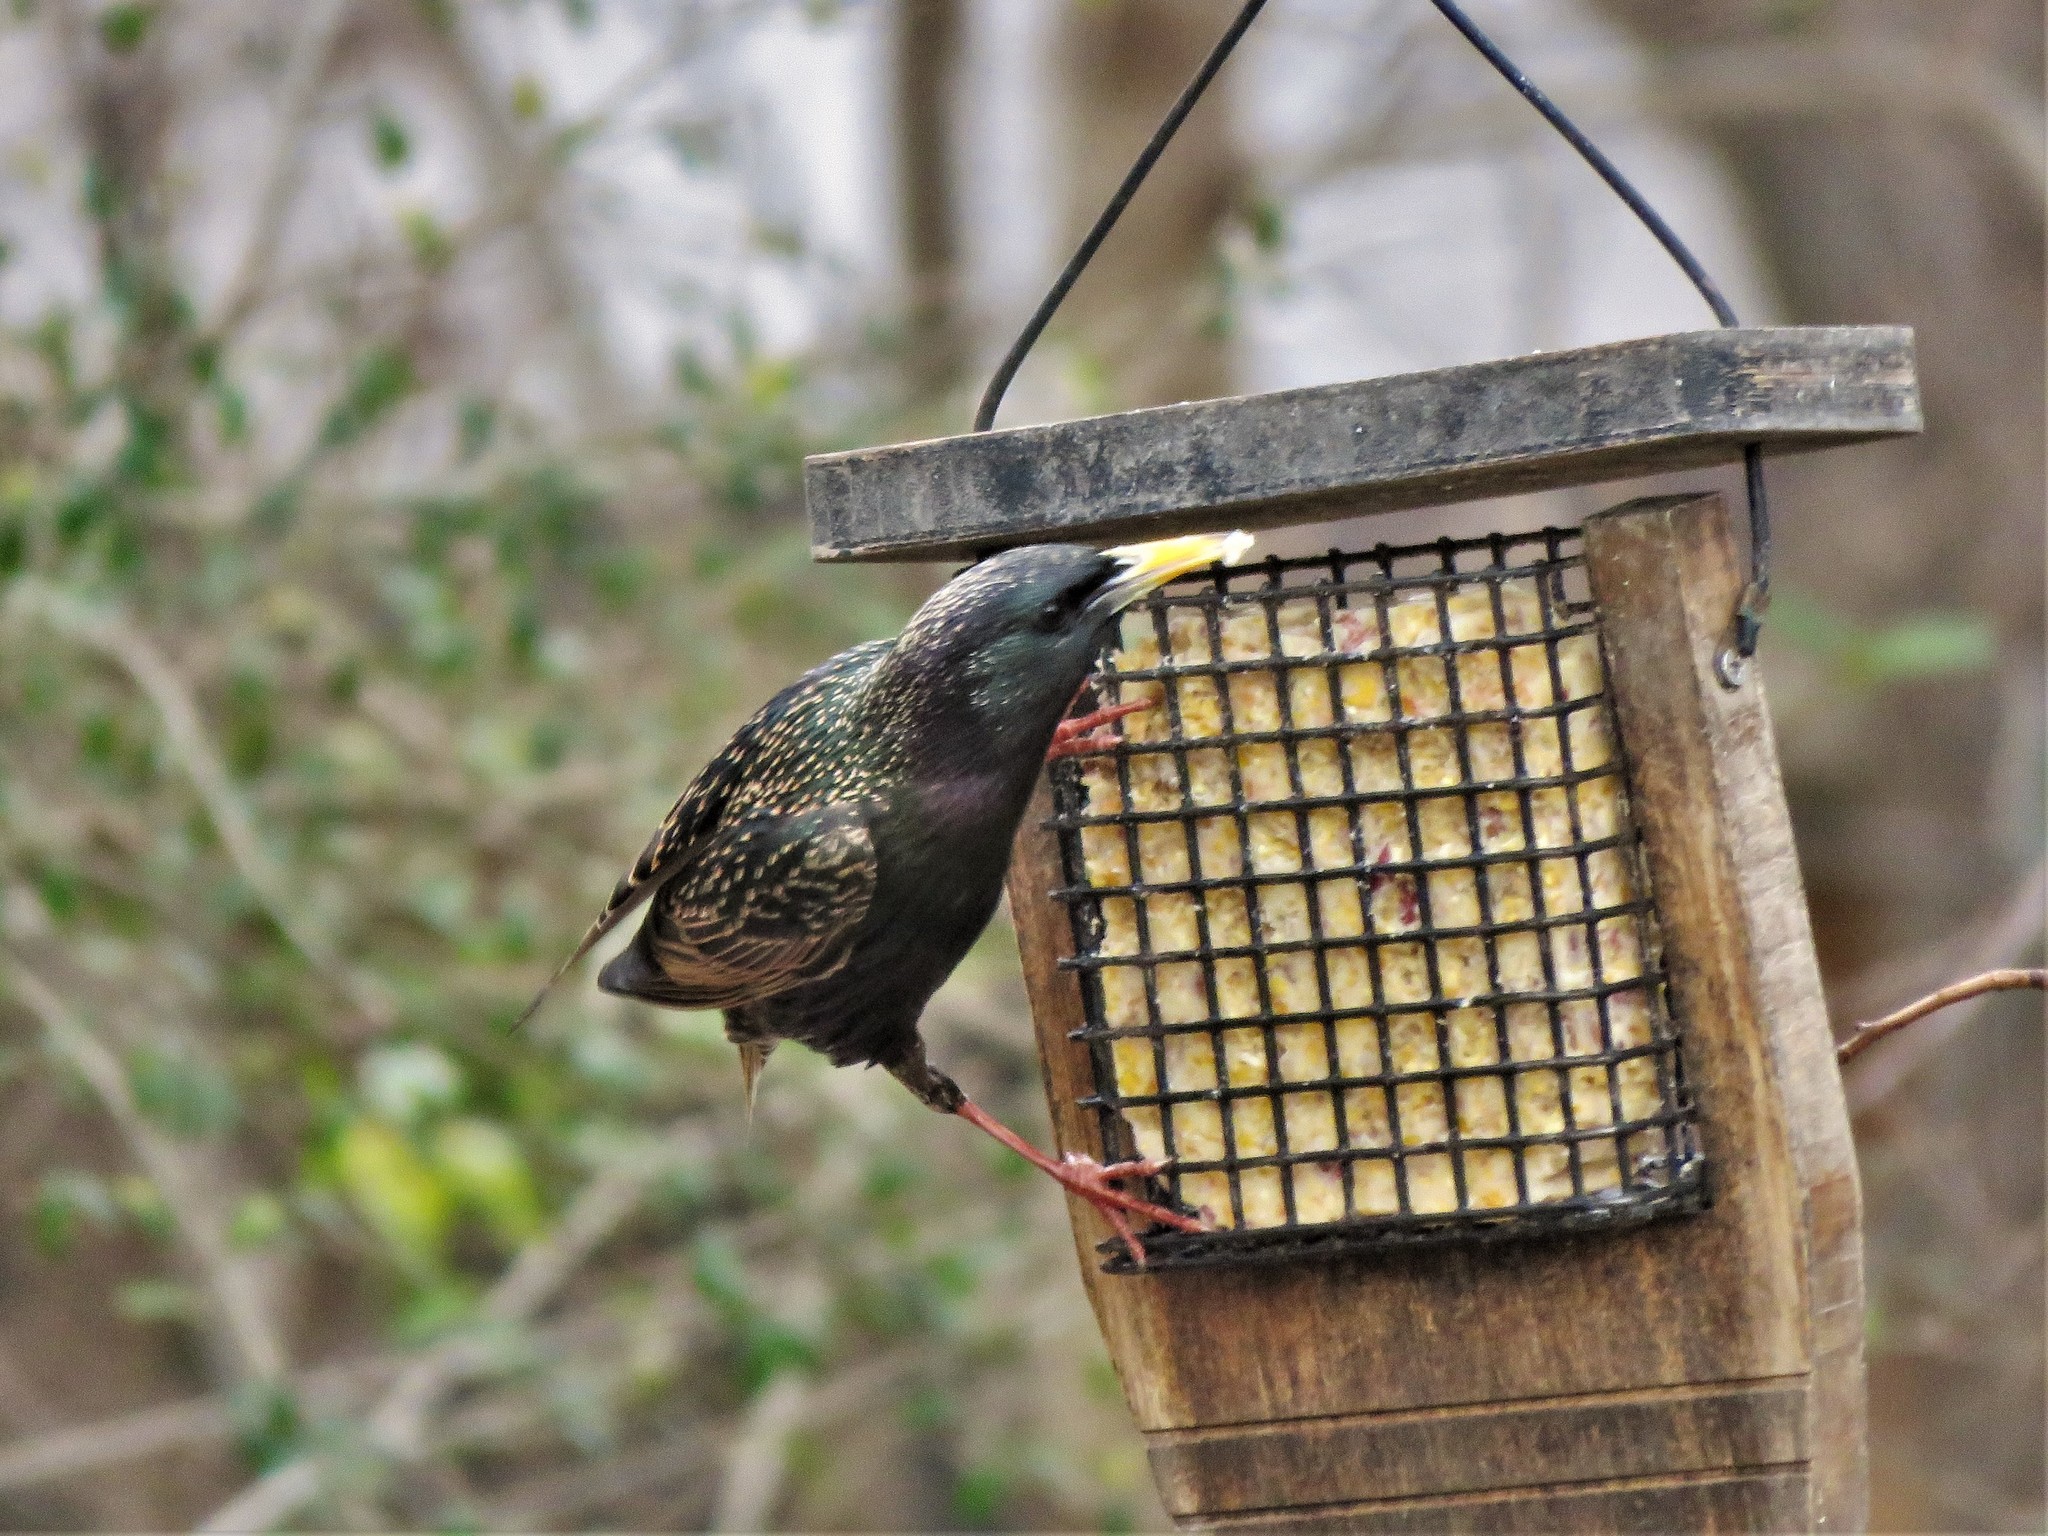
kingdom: Animalia
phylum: Chordata
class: Aves
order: Passeriformes
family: Sturnidae
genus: Sturnus
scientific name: Sturnus vulgaris
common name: Common starling
